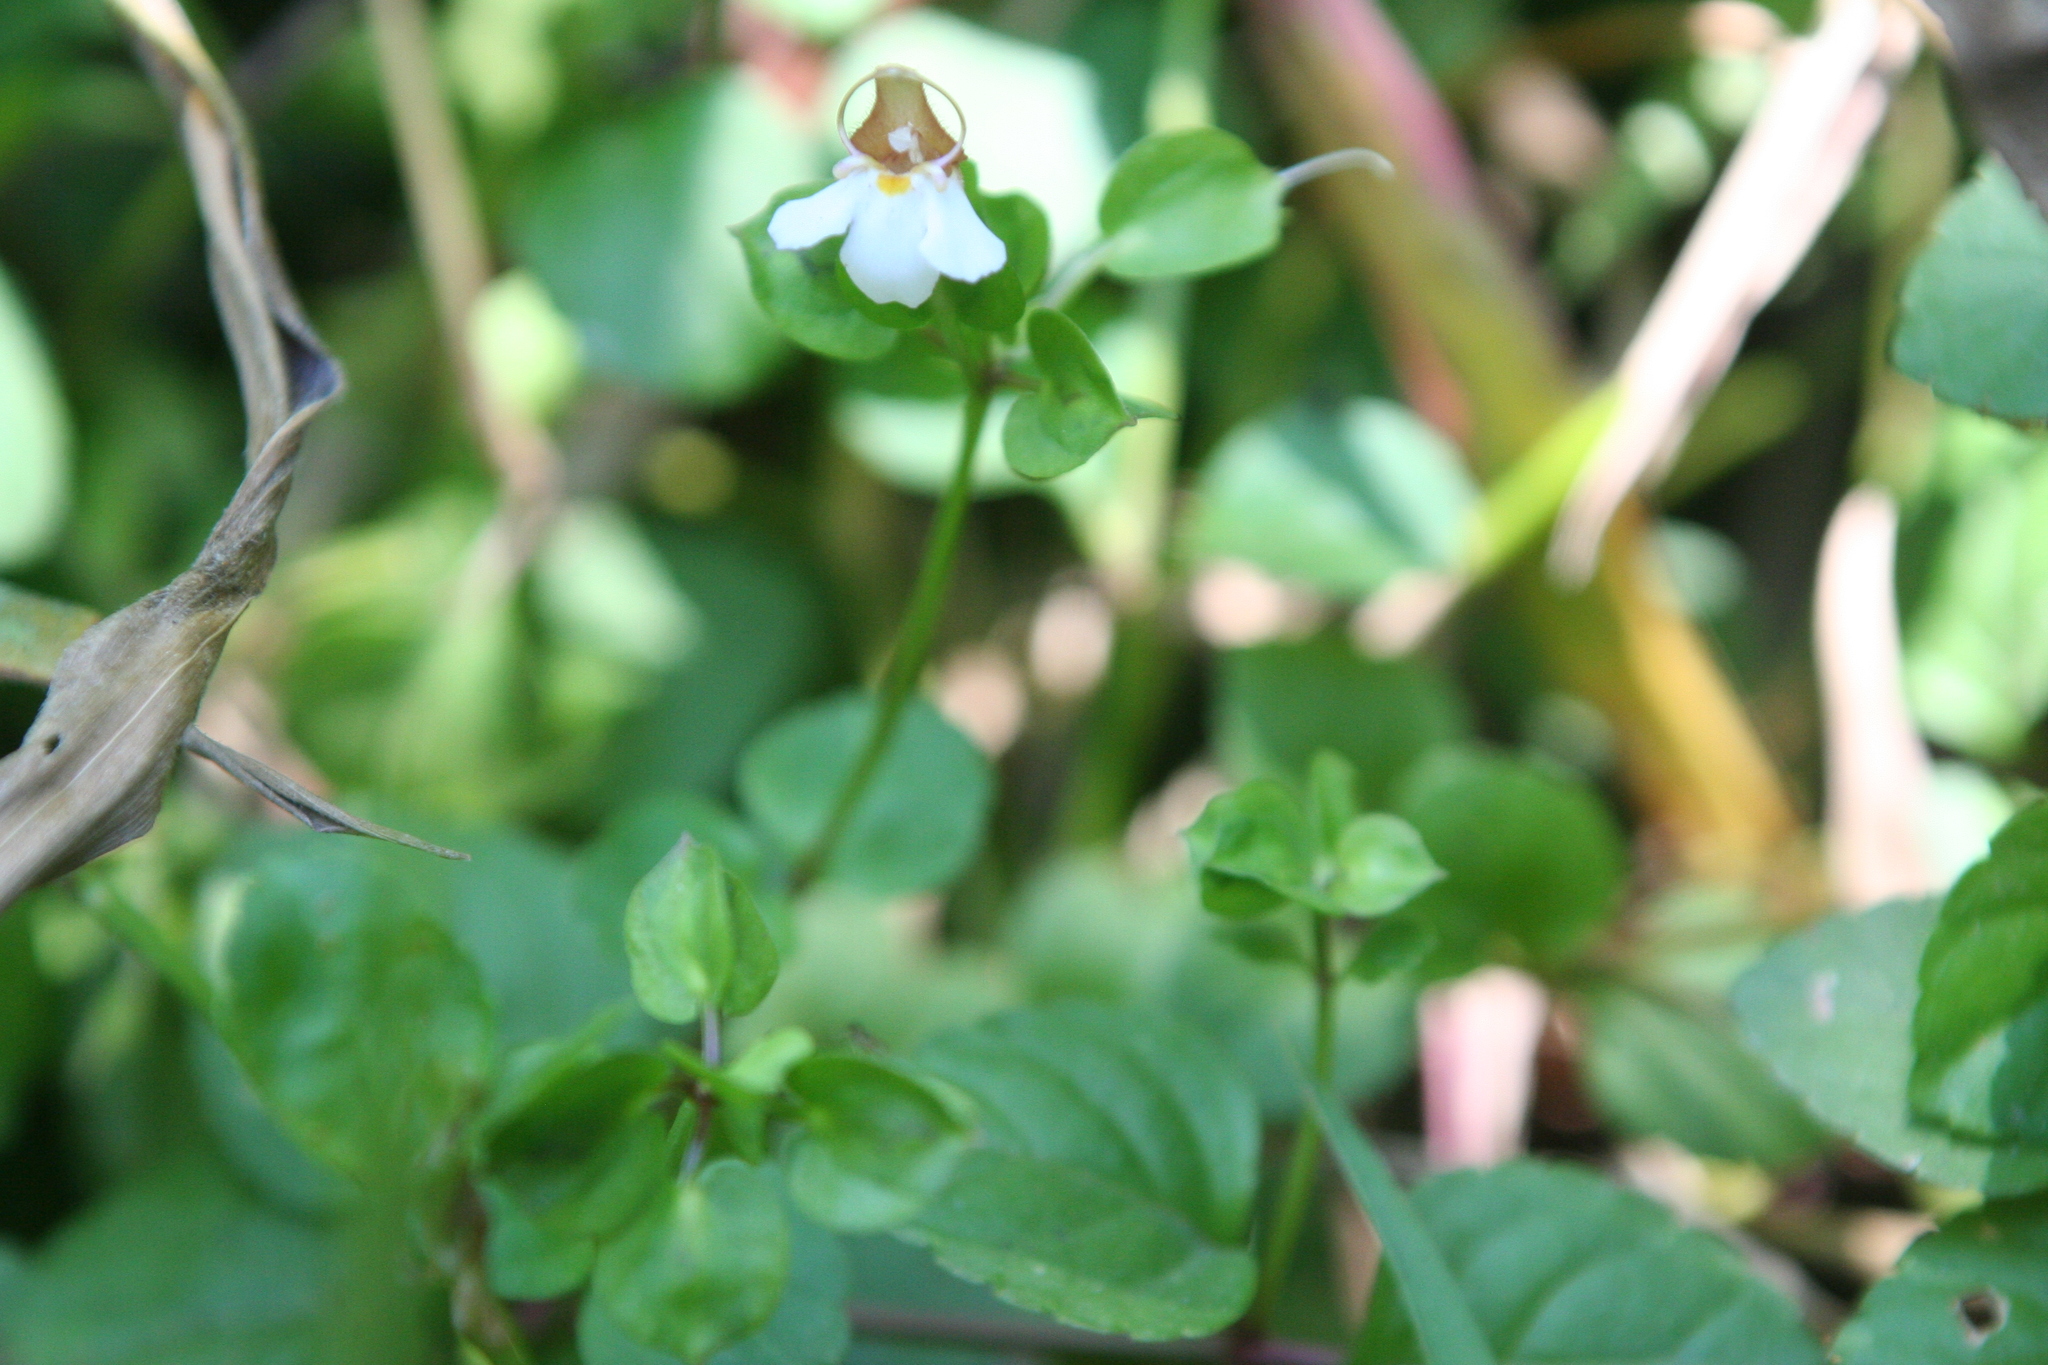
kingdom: Plantae
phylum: Tracheophyta
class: Magnoliopsida
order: Lamiales
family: Linderniaceae
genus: Legazpia
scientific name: Legazpia polygonoides
